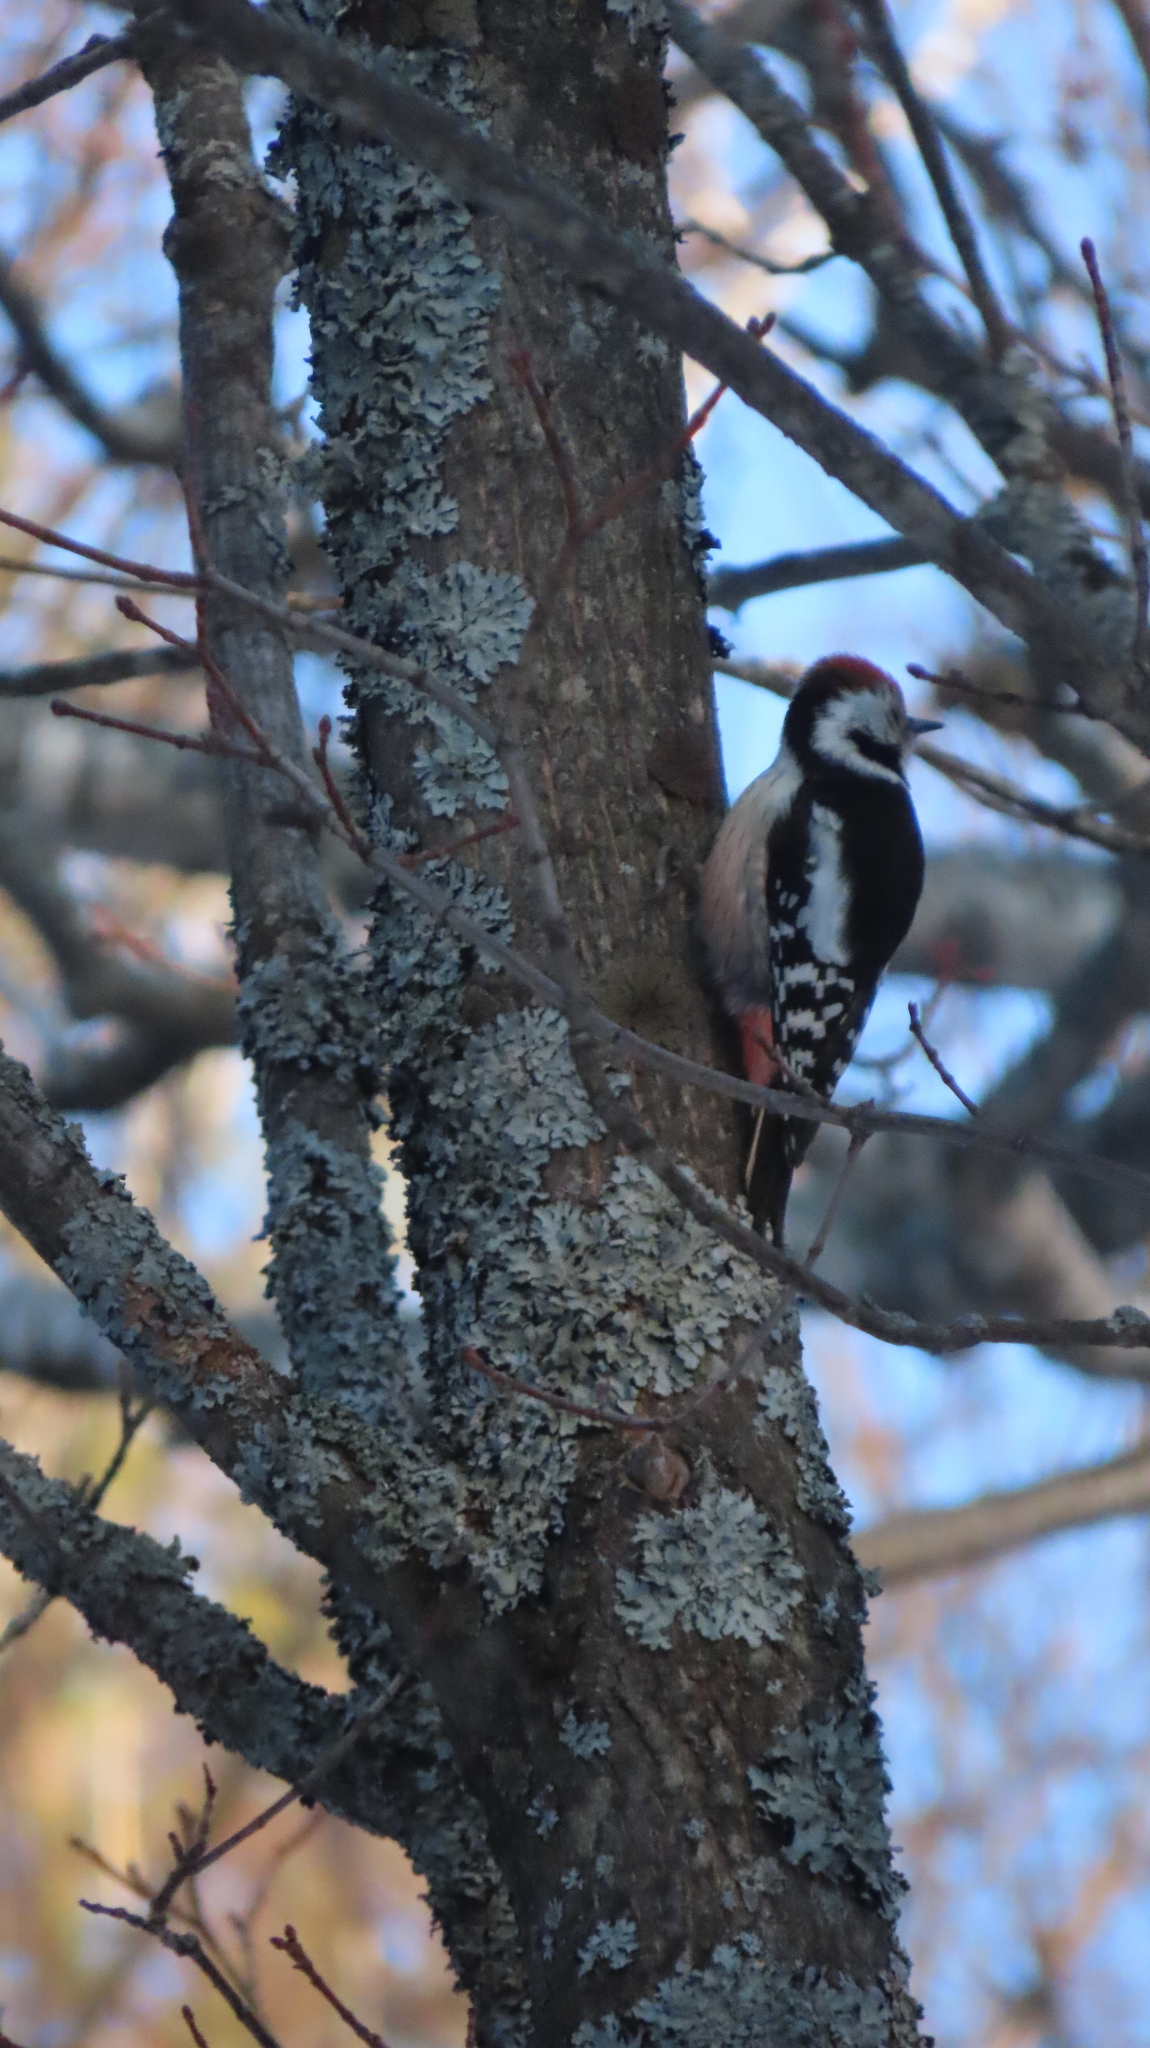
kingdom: Animalia
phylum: Chordata
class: Aves
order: Piciformes
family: Picidae
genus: Dendrocoptes
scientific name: Dendrocoptes medius
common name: Middle spotted woodpecker
